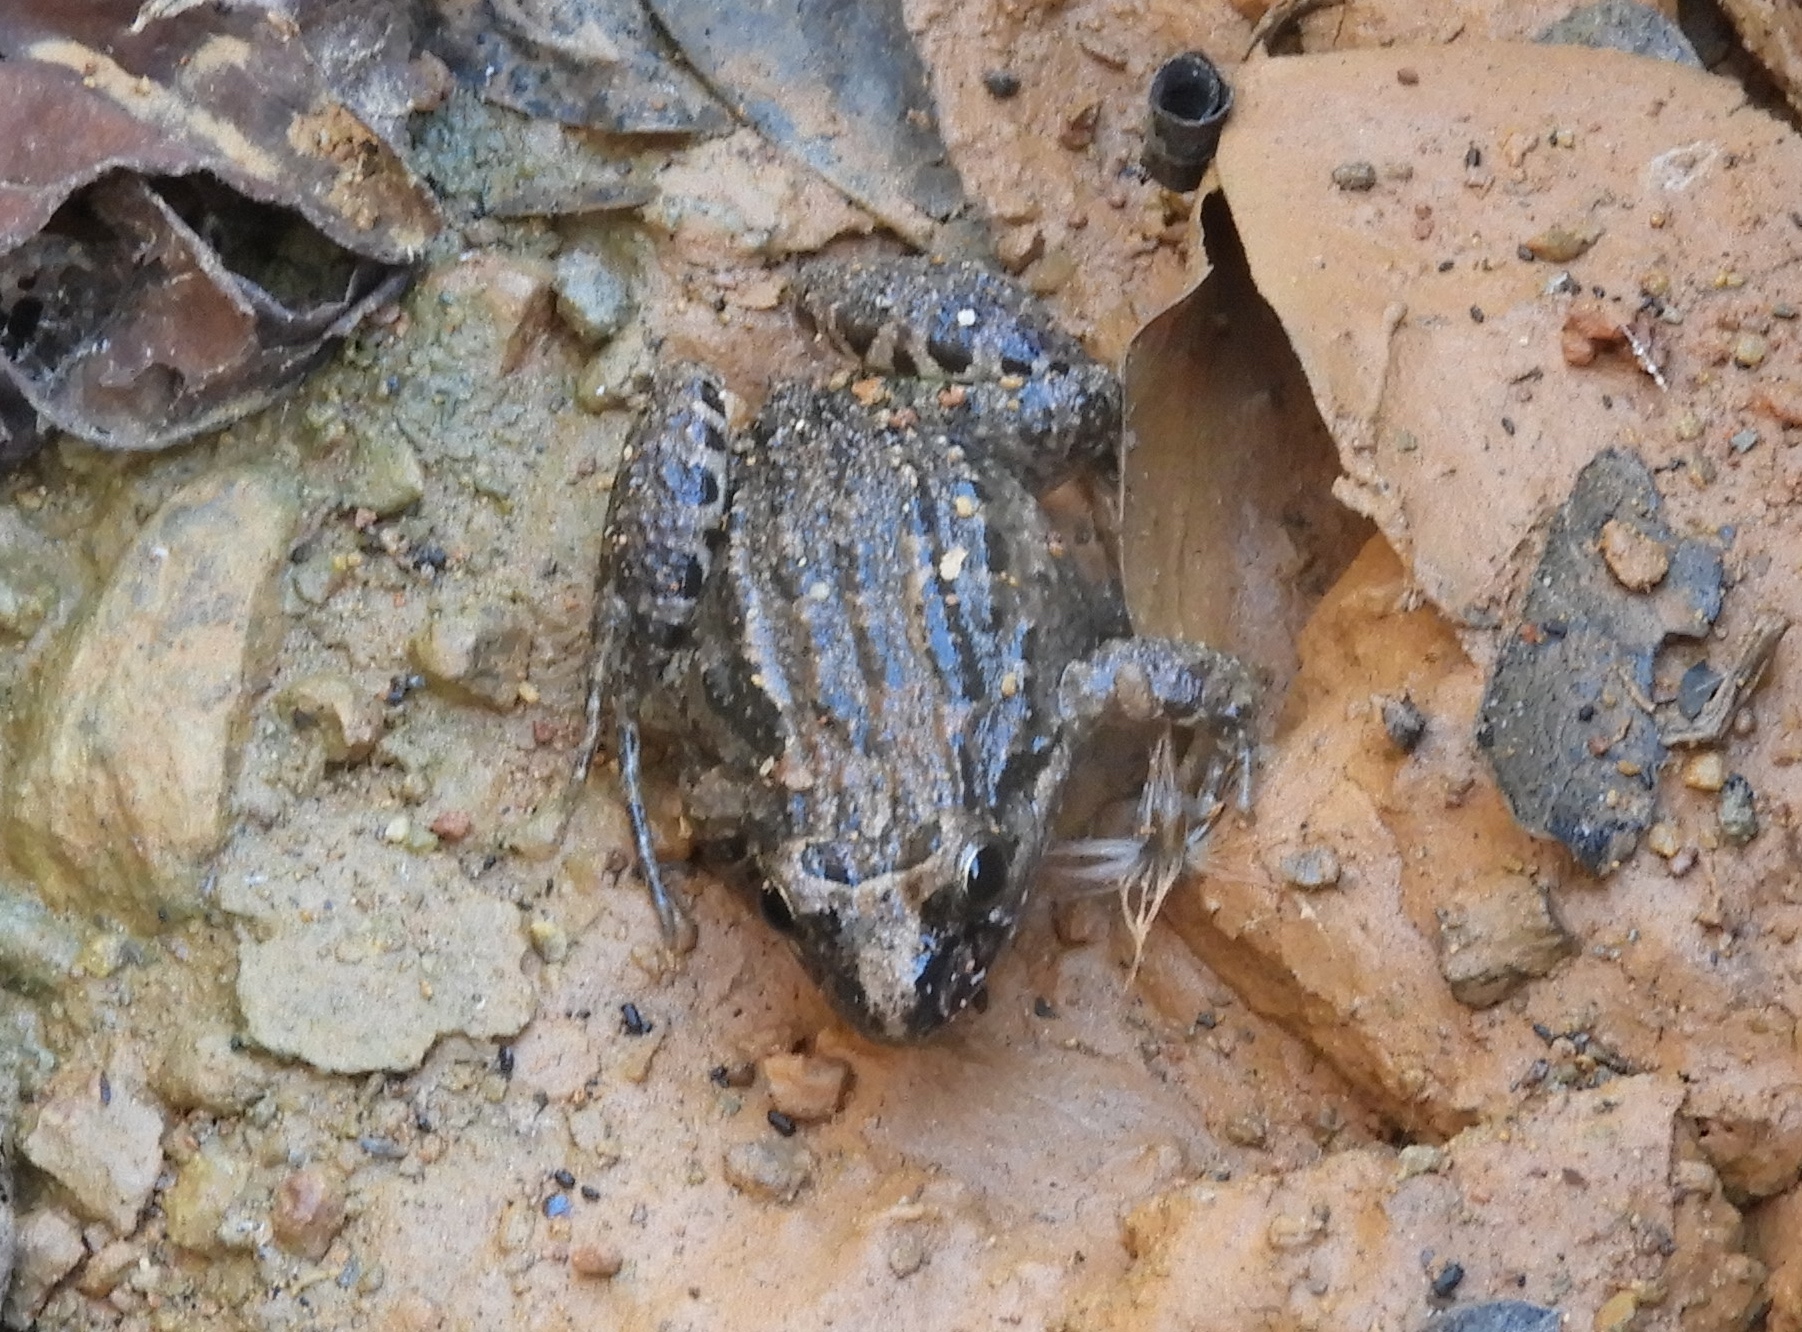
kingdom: Animalia
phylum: Chordata
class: Amphibia
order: Anura
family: Leptodactylidae
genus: Leptodactylus
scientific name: Leptodactylus melanonotus
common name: Fringe-toed foamfrog
